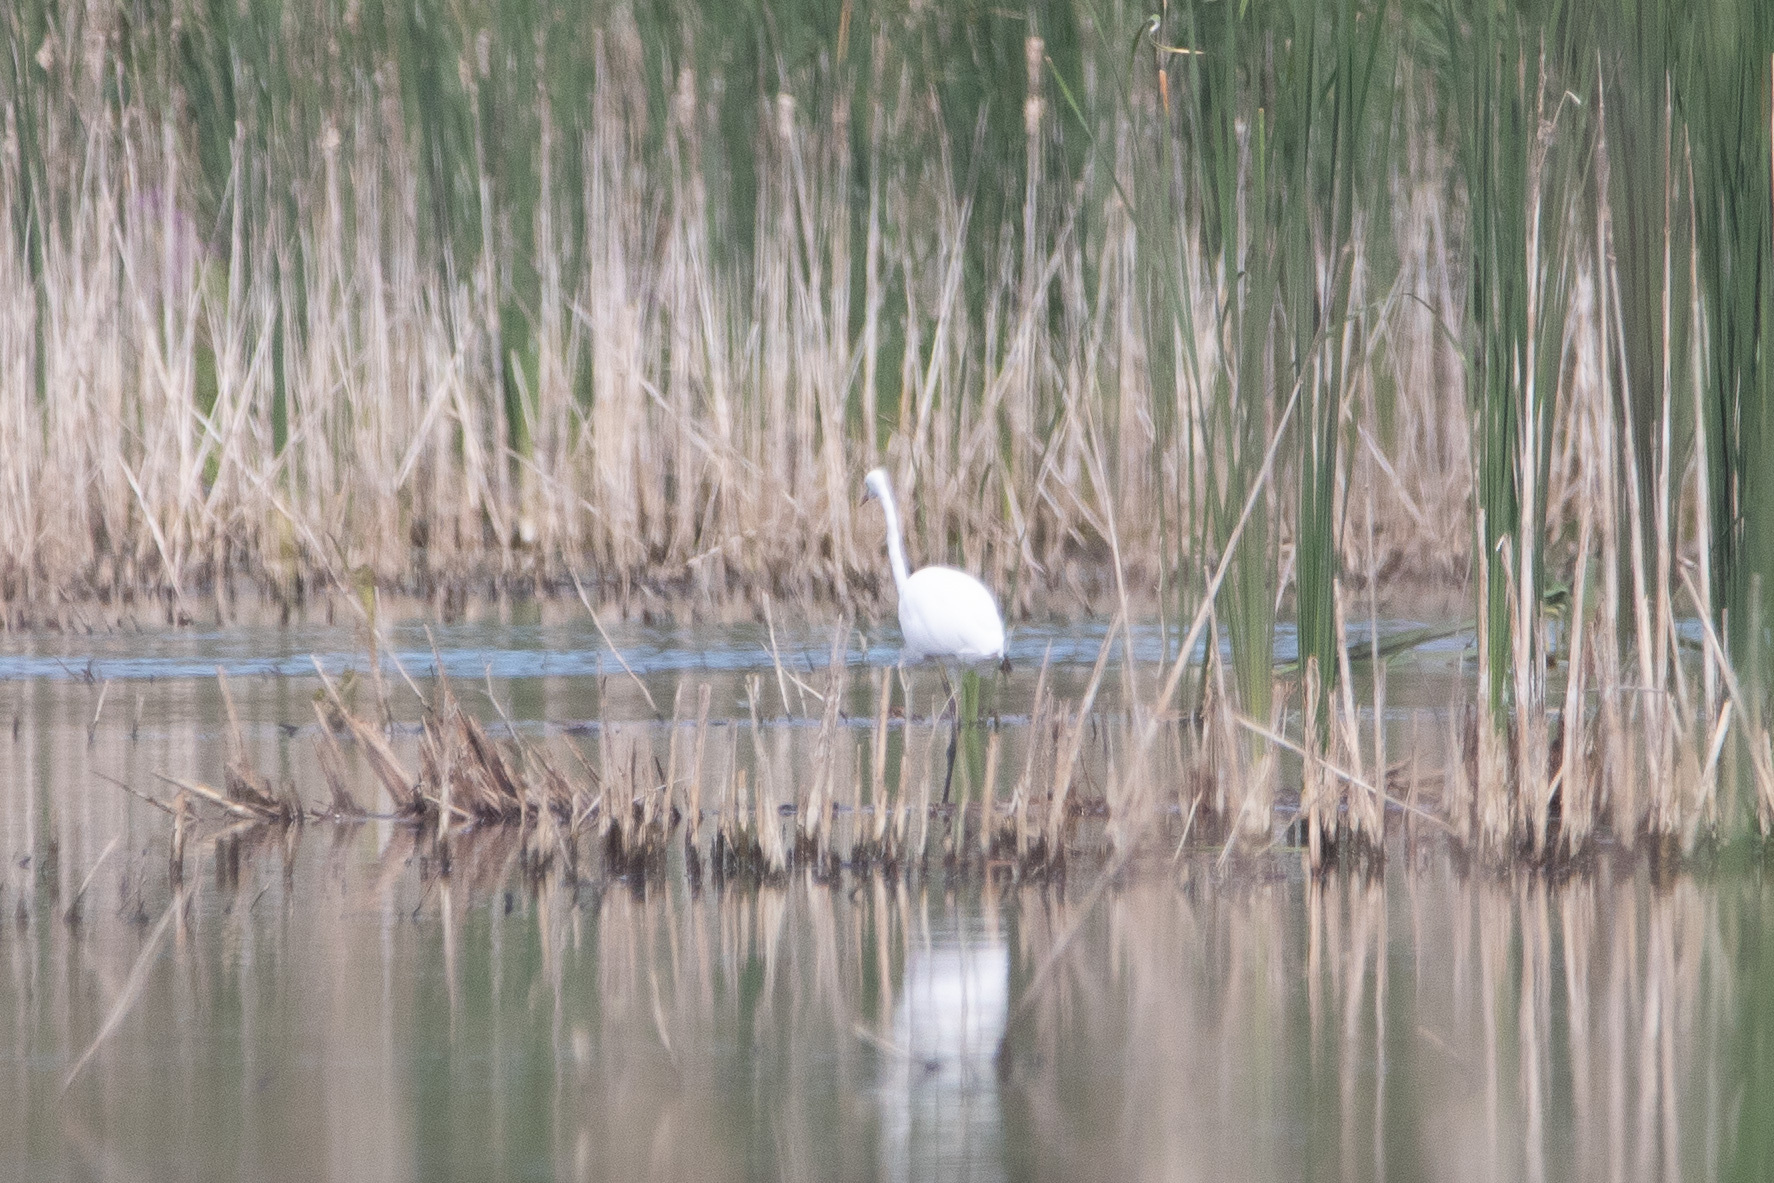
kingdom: Animalia
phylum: Chordata
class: Aves
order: Pelecaniformes
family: Ardeidae
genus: Ardea
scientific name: Ardea alba
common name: Great egret
